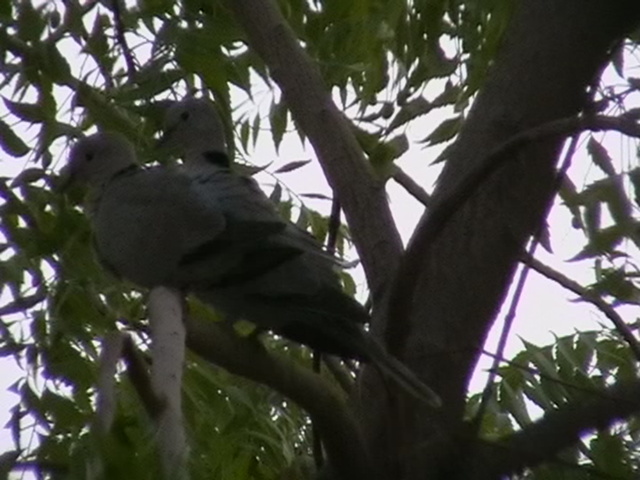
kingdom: Animalia
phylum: Chordata
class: Aves
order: Columbiformes
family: Columbidae
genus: Streptopelia
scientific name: Streptopelia decaocto
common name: Eurasian collared dove
